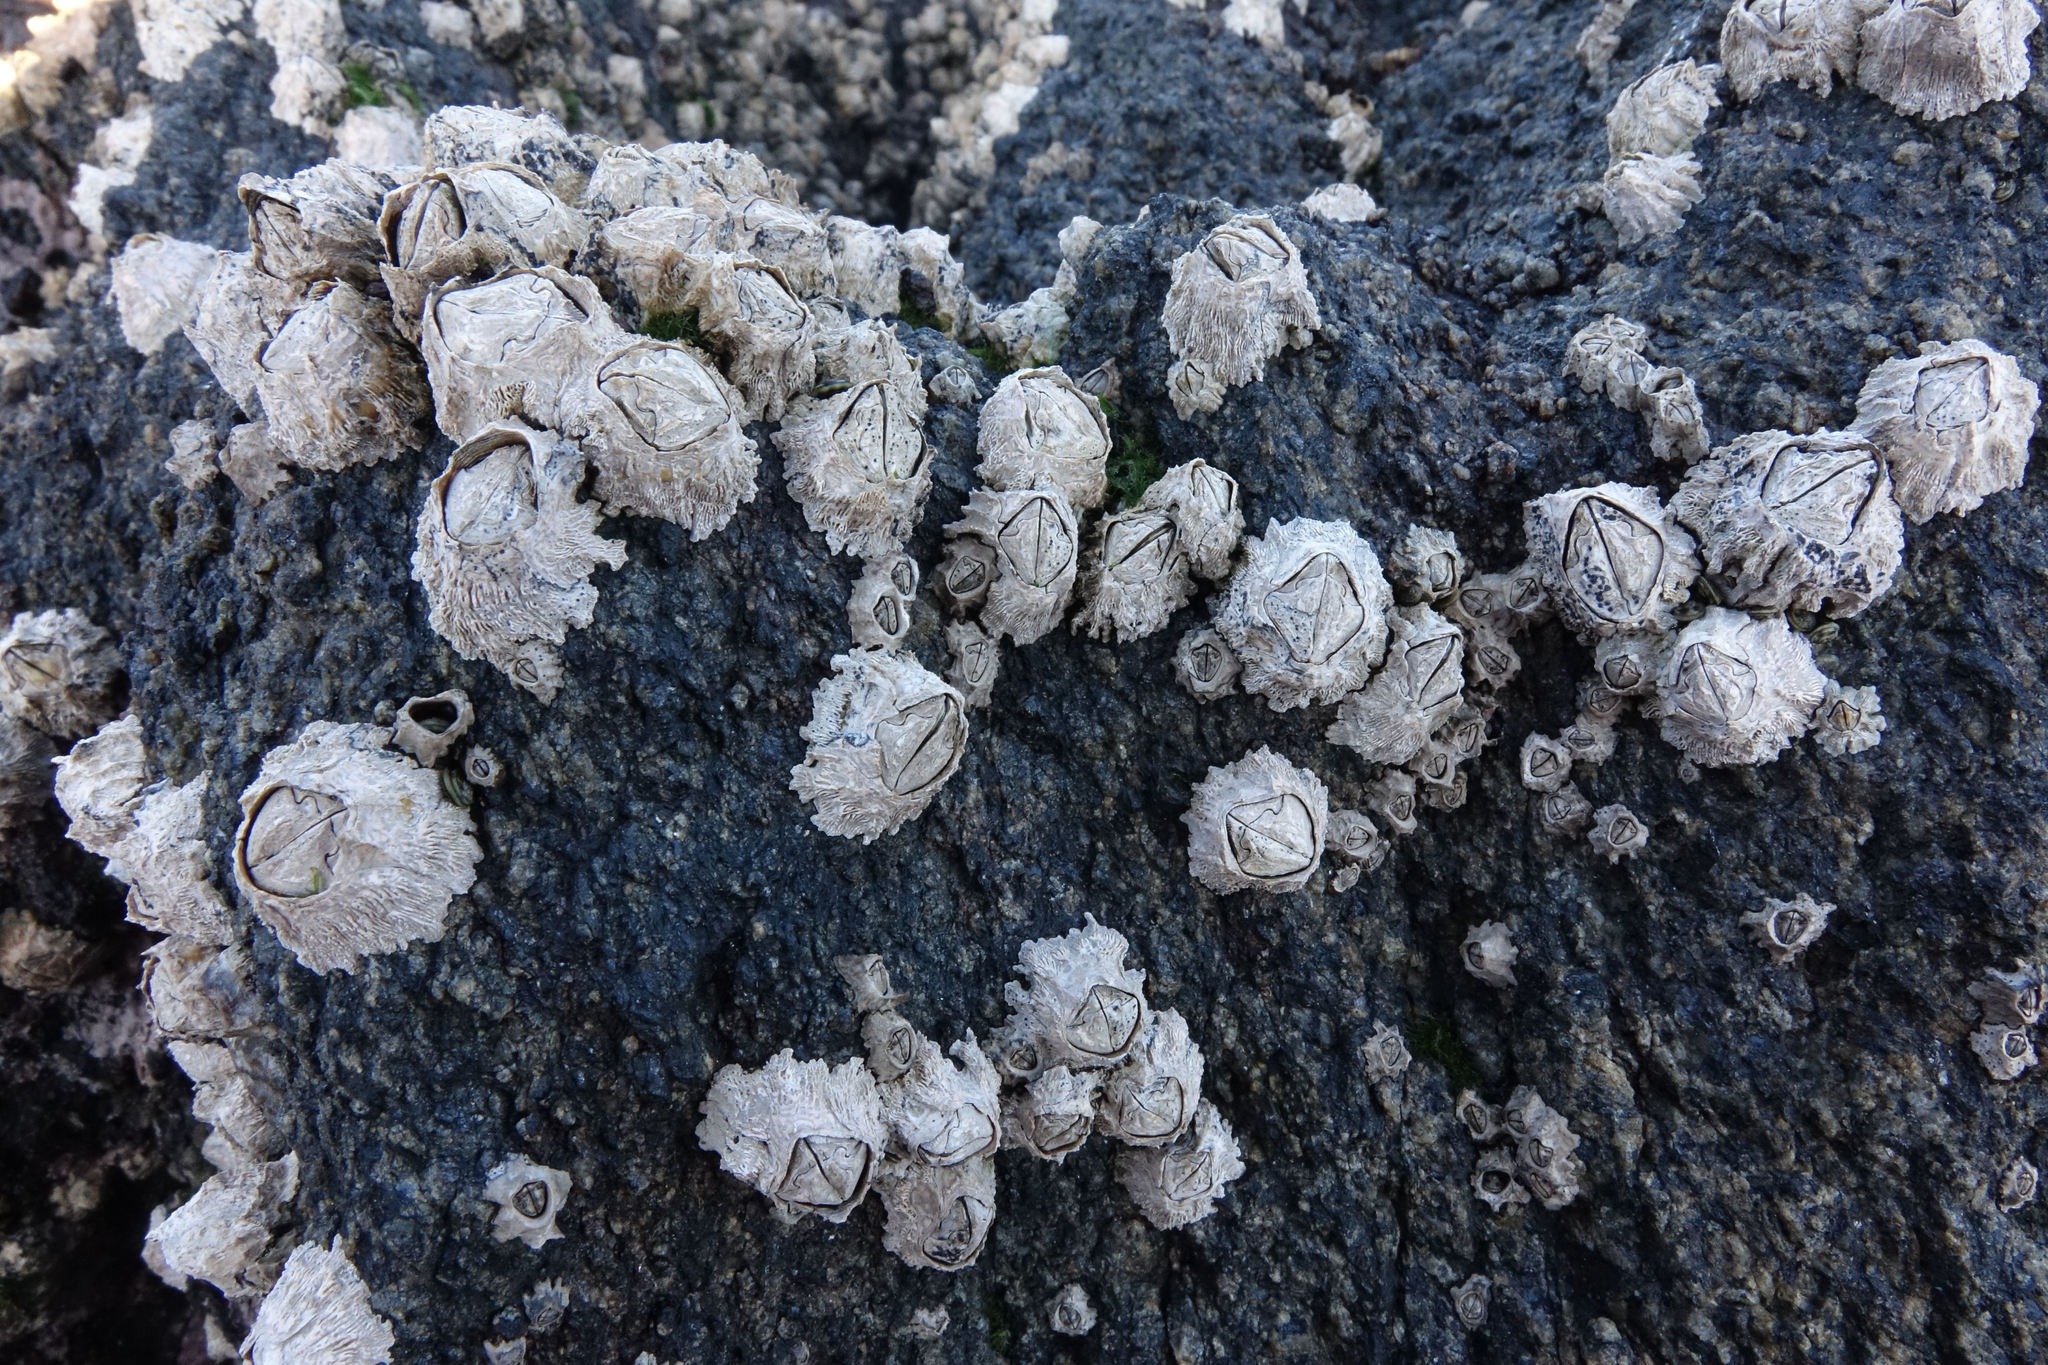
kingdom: Animalia
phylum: Arthropoda
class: Maxillopoda
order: Sessilia
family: Chthamalidae
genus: Chamaesipho
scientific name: Chamaesipho columna
